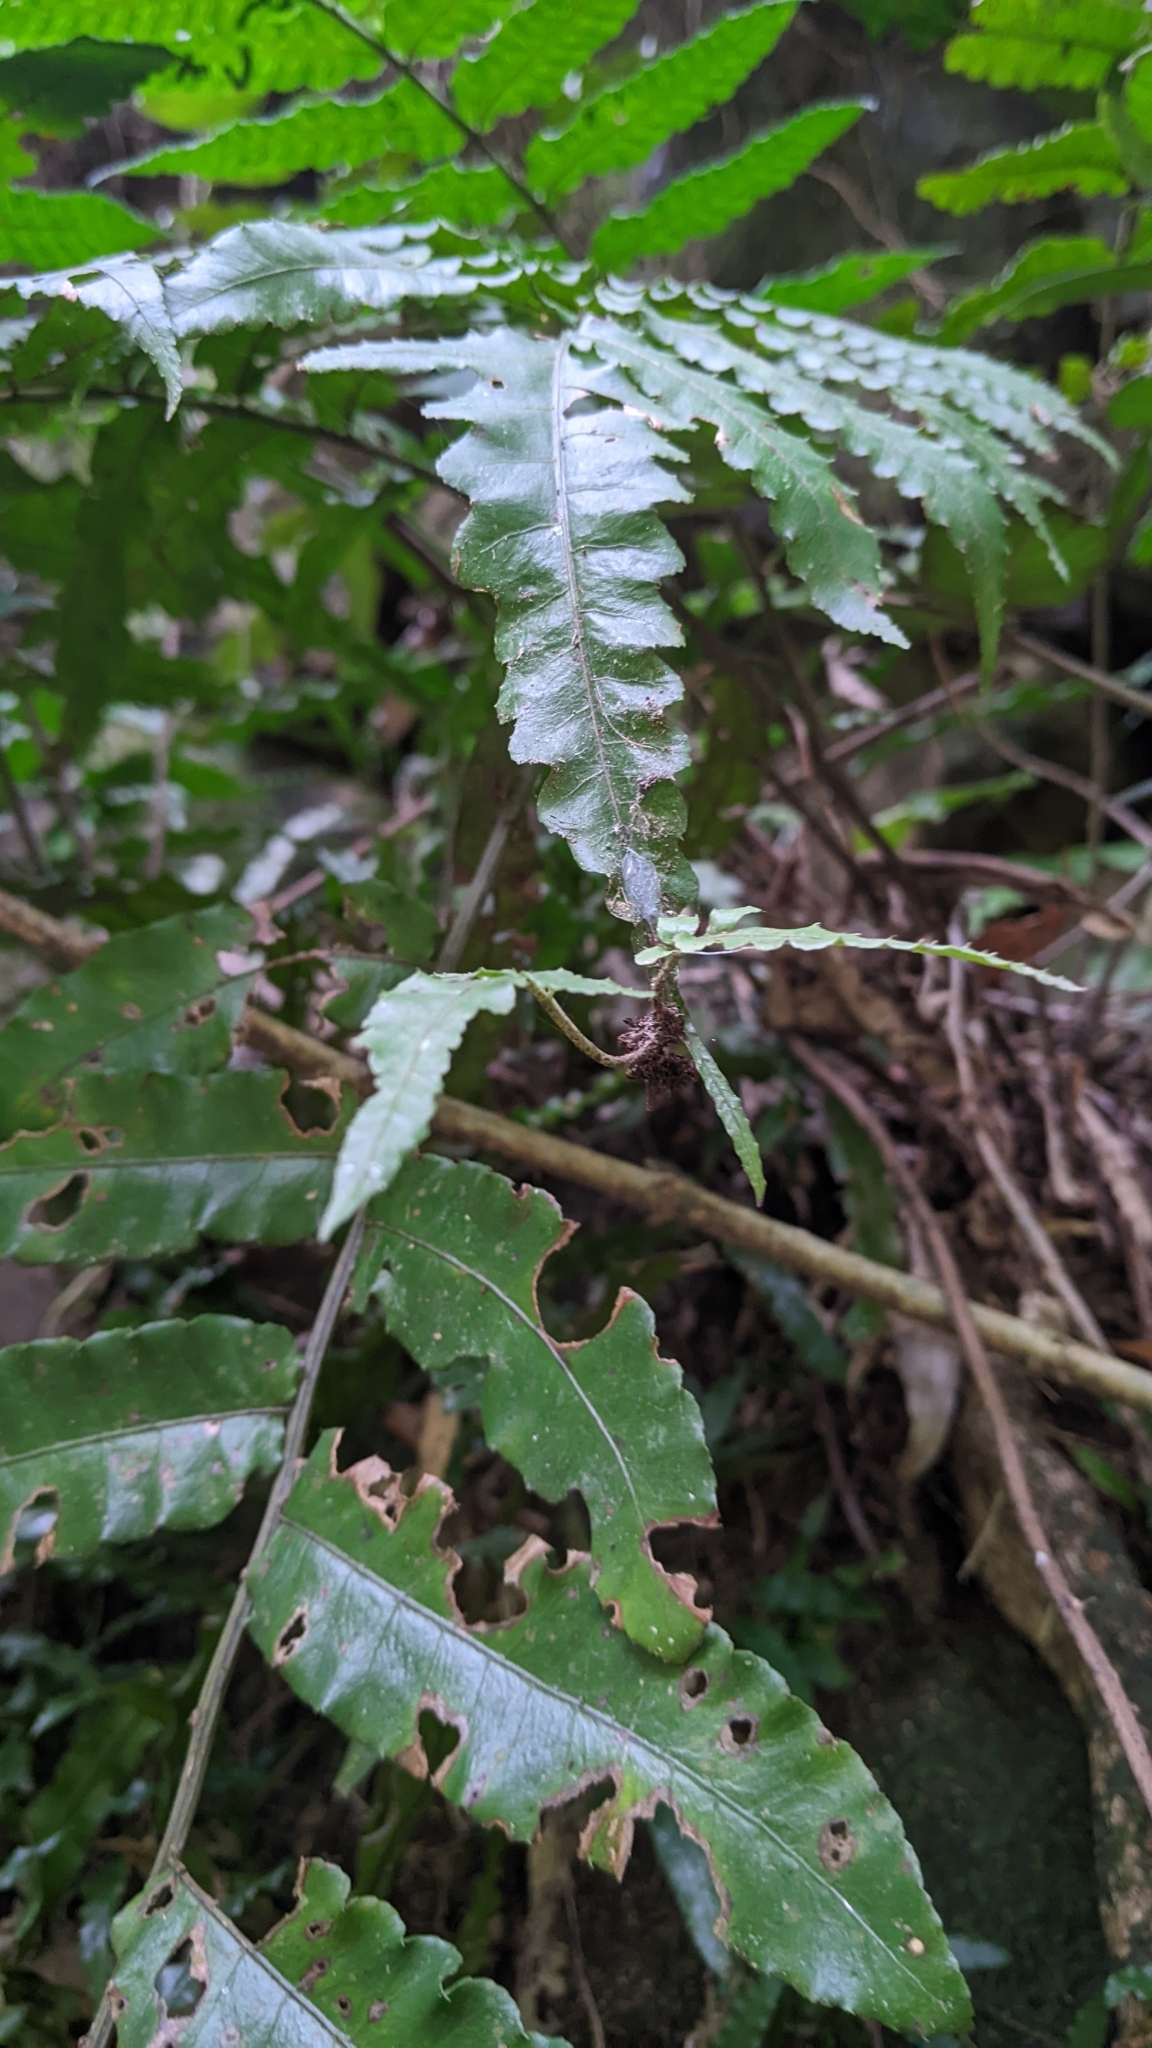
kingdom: Plantae
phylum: Tracheophyta
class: Polypodiopsida
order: Polypodiales
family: Dryopteridaceae
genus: Bolbitis
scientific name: Bolbitis subcordata
